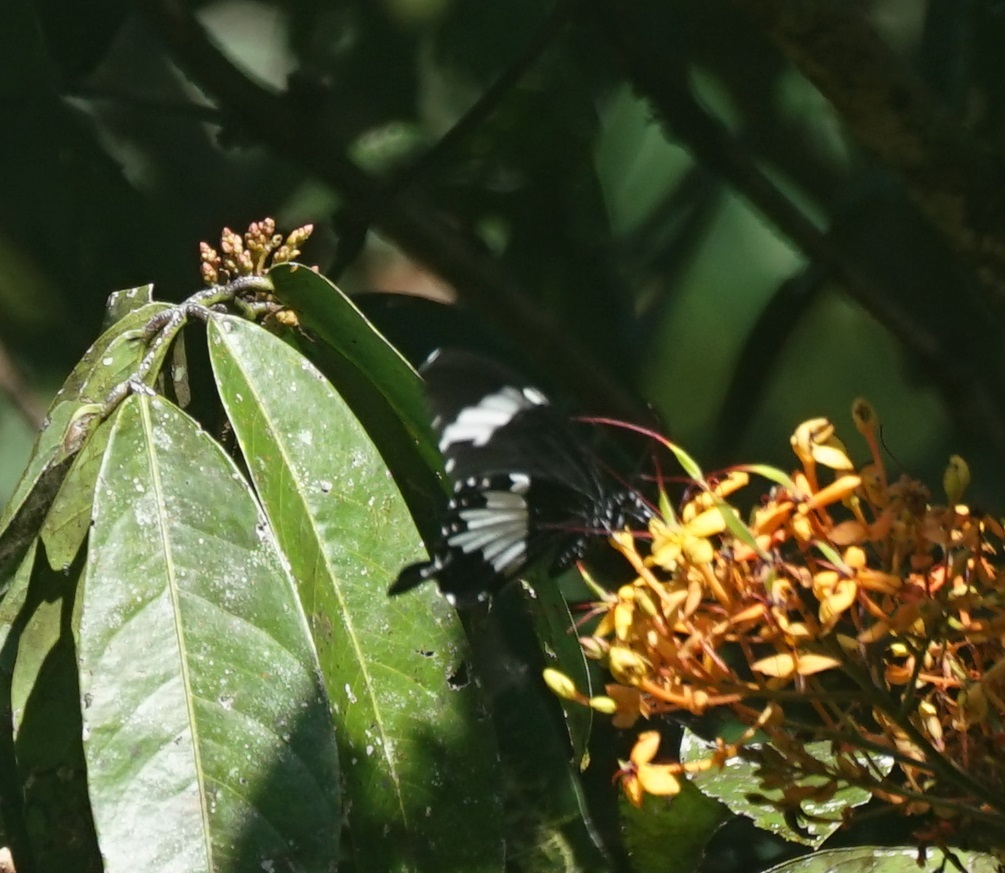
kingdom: Animalia
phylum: Arthropoda
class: Insecta
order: Lepidoptera
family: Papilionidae
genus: Papilio
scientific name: Papilio nephelus
